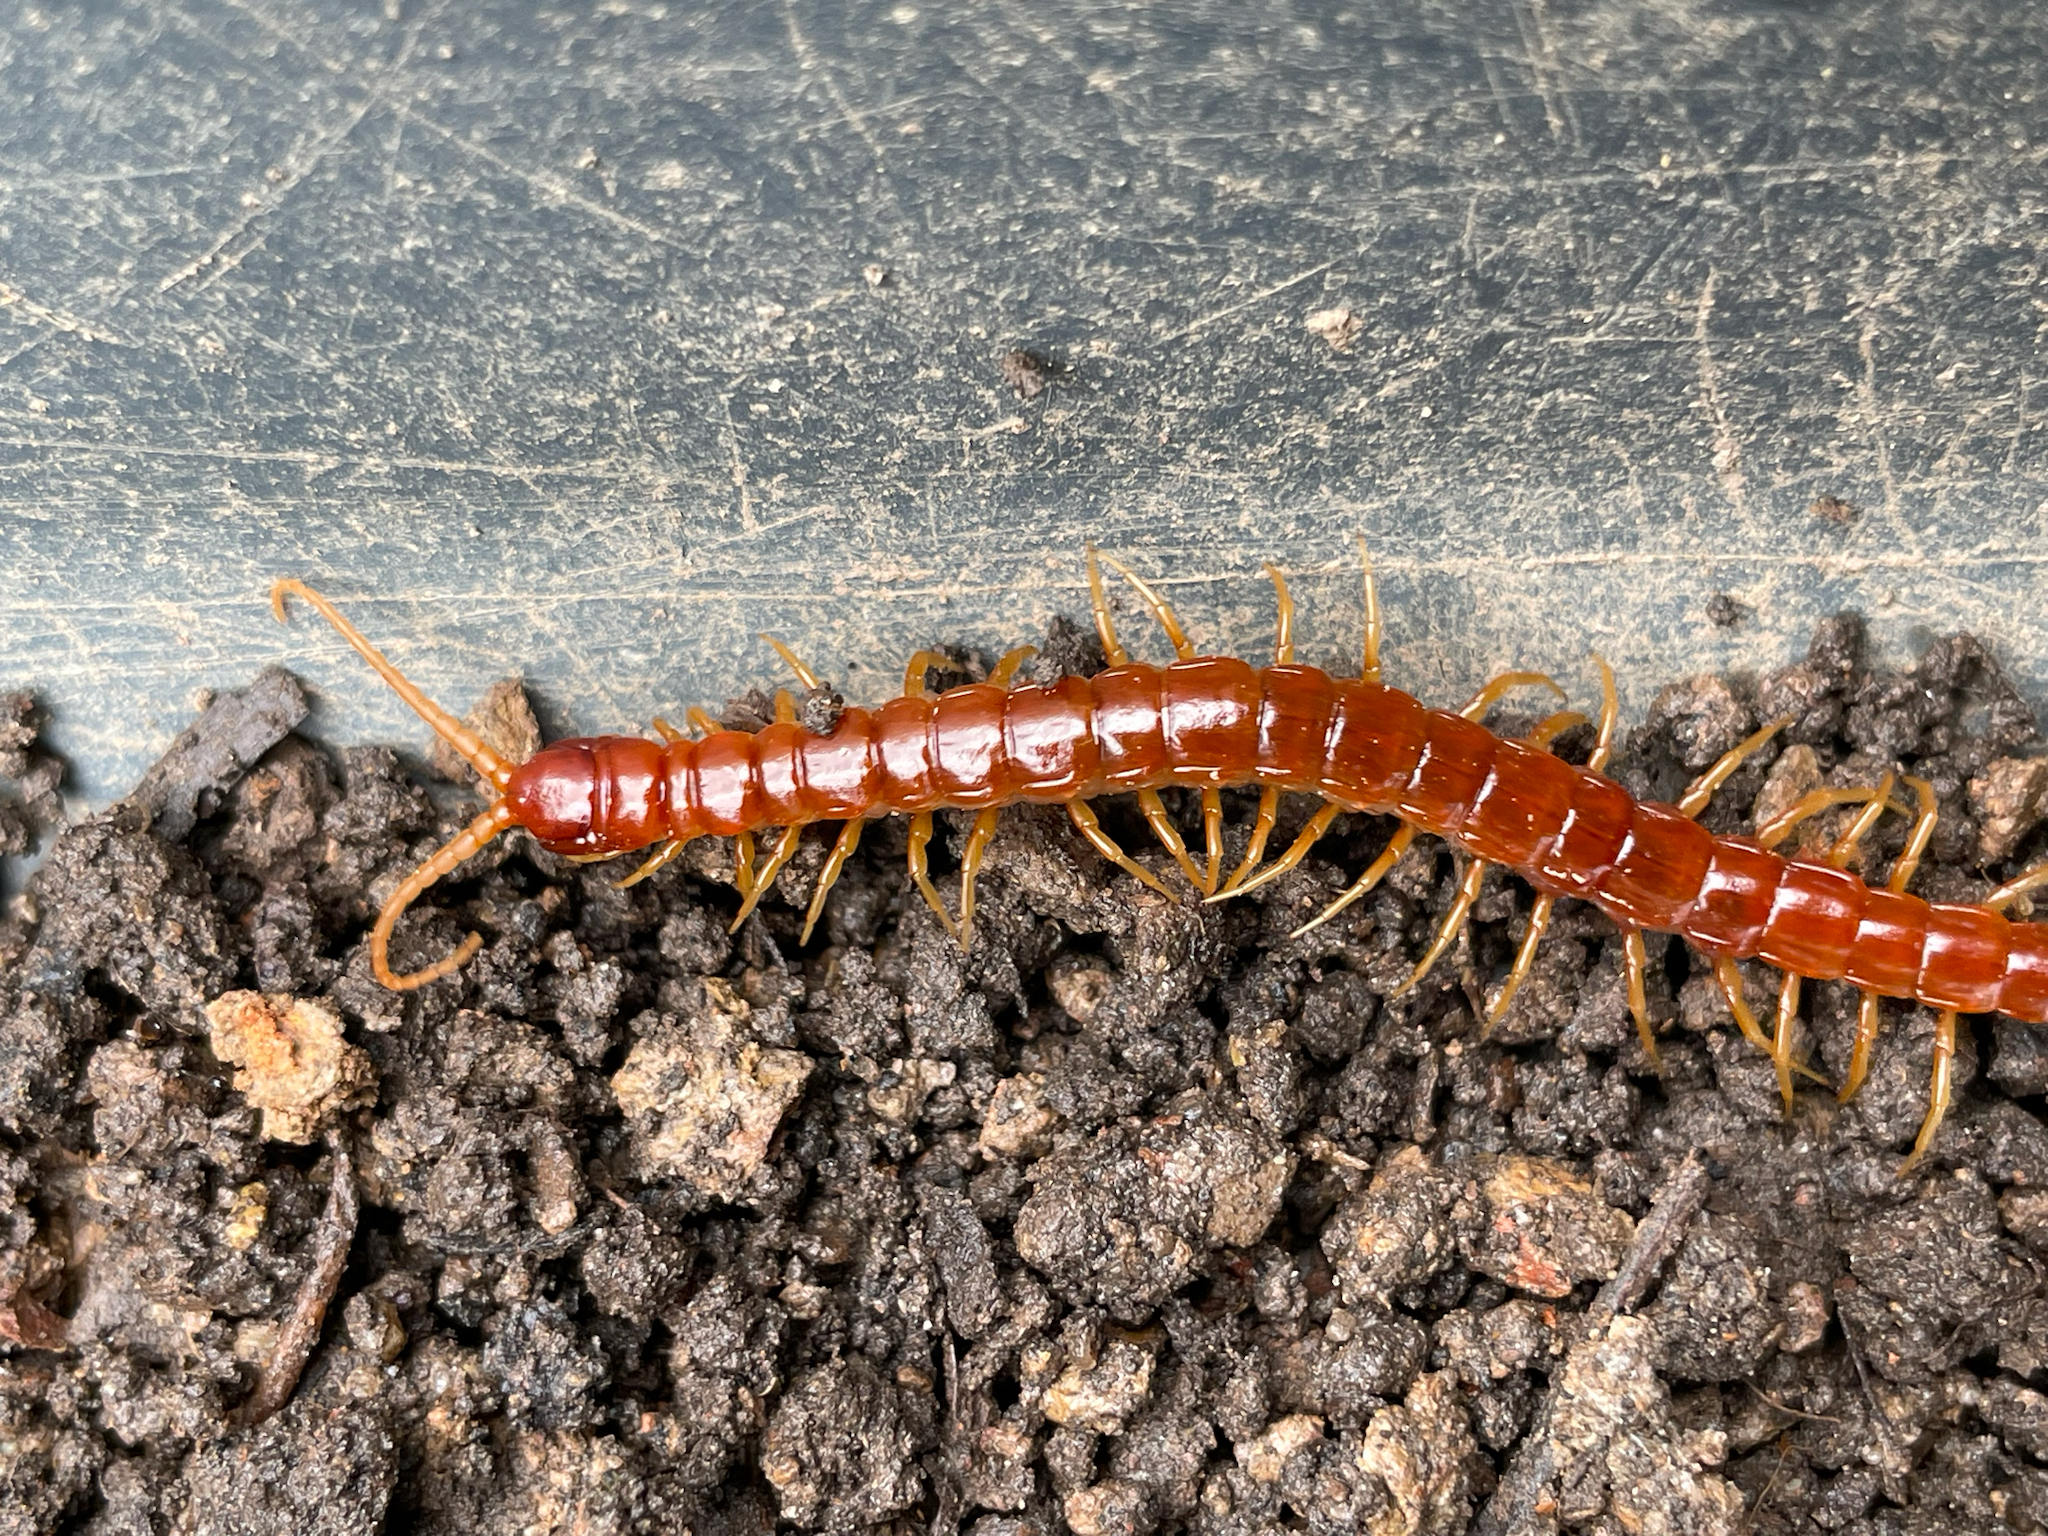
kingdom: Animalia
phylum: Arthropoda
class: Chilopoda
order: Scolopendromorpha
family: Scolopocryptopidae
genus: Scolopocryptops
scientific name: Scolopocryptops sexspinosus
